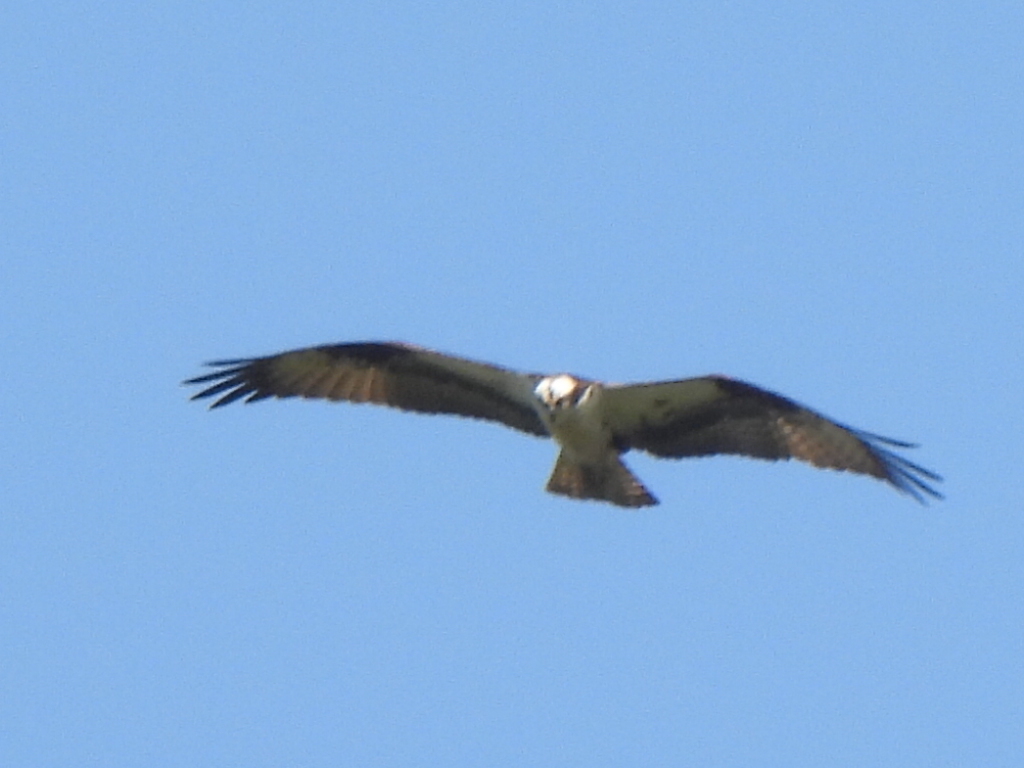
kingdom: Animalia
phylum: Chordata
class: Aves
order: Accipitriformes
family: Pandionidae
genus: Pandion
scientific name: Pandion haliaetus
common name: Osprey
